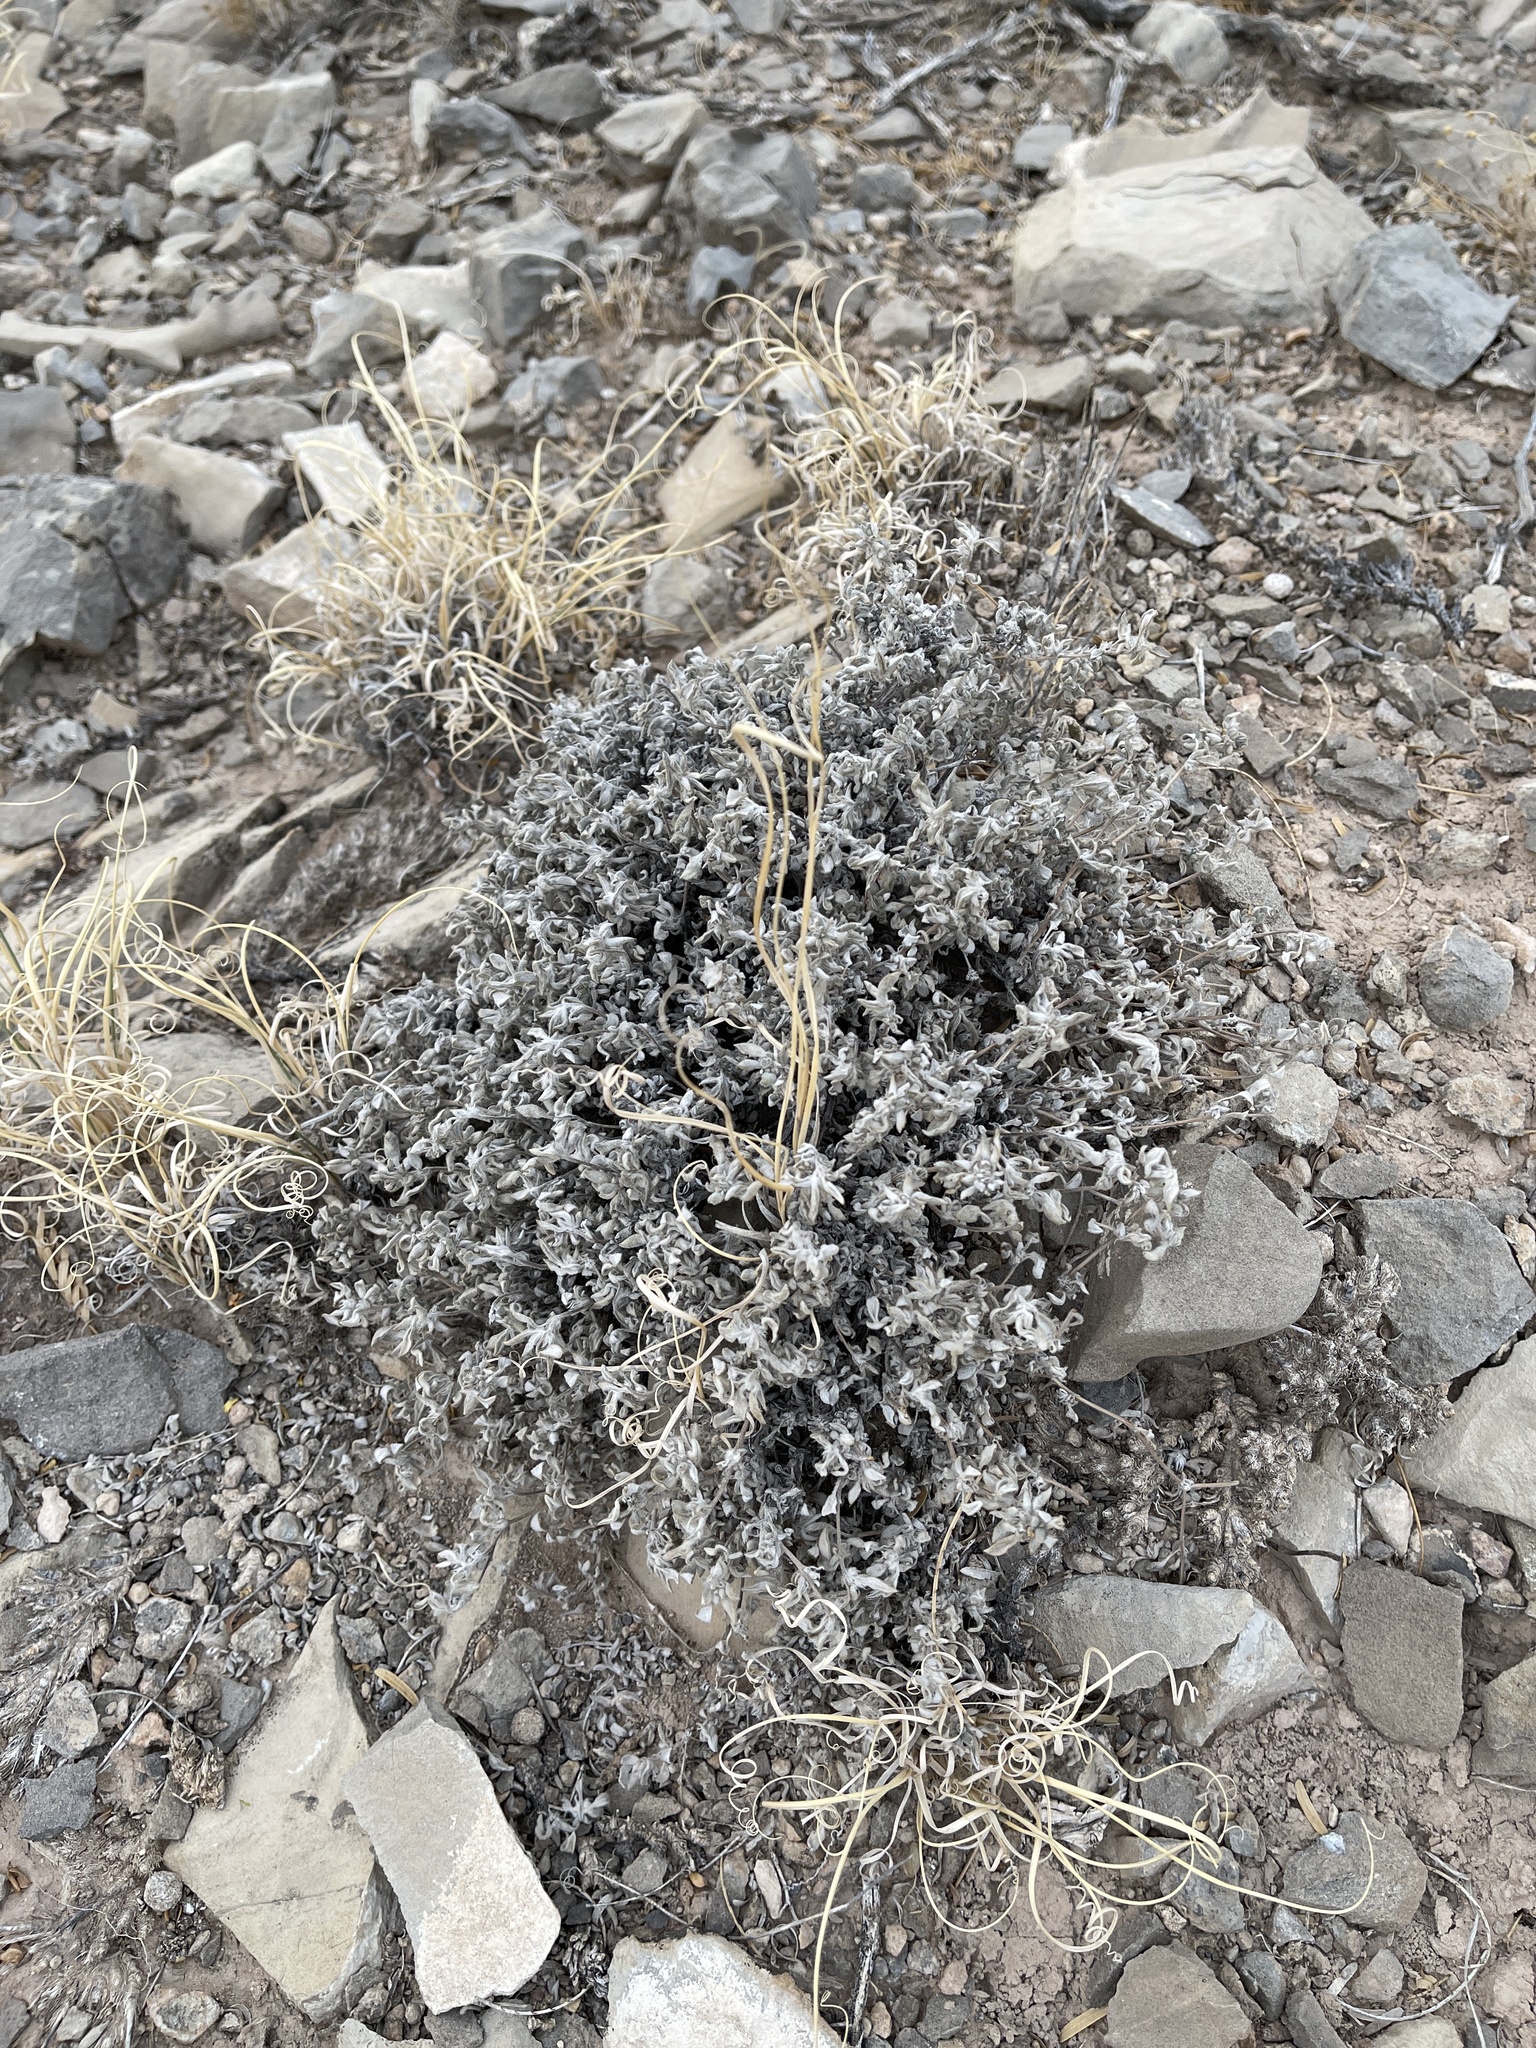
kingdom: Plantae
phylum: Tracheophyta
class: Magnoliopsida
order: Boraginales
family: Ehretiaceae
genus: Tiquilia
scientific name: Tiquilia canescens
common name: Hairy tiquilia
